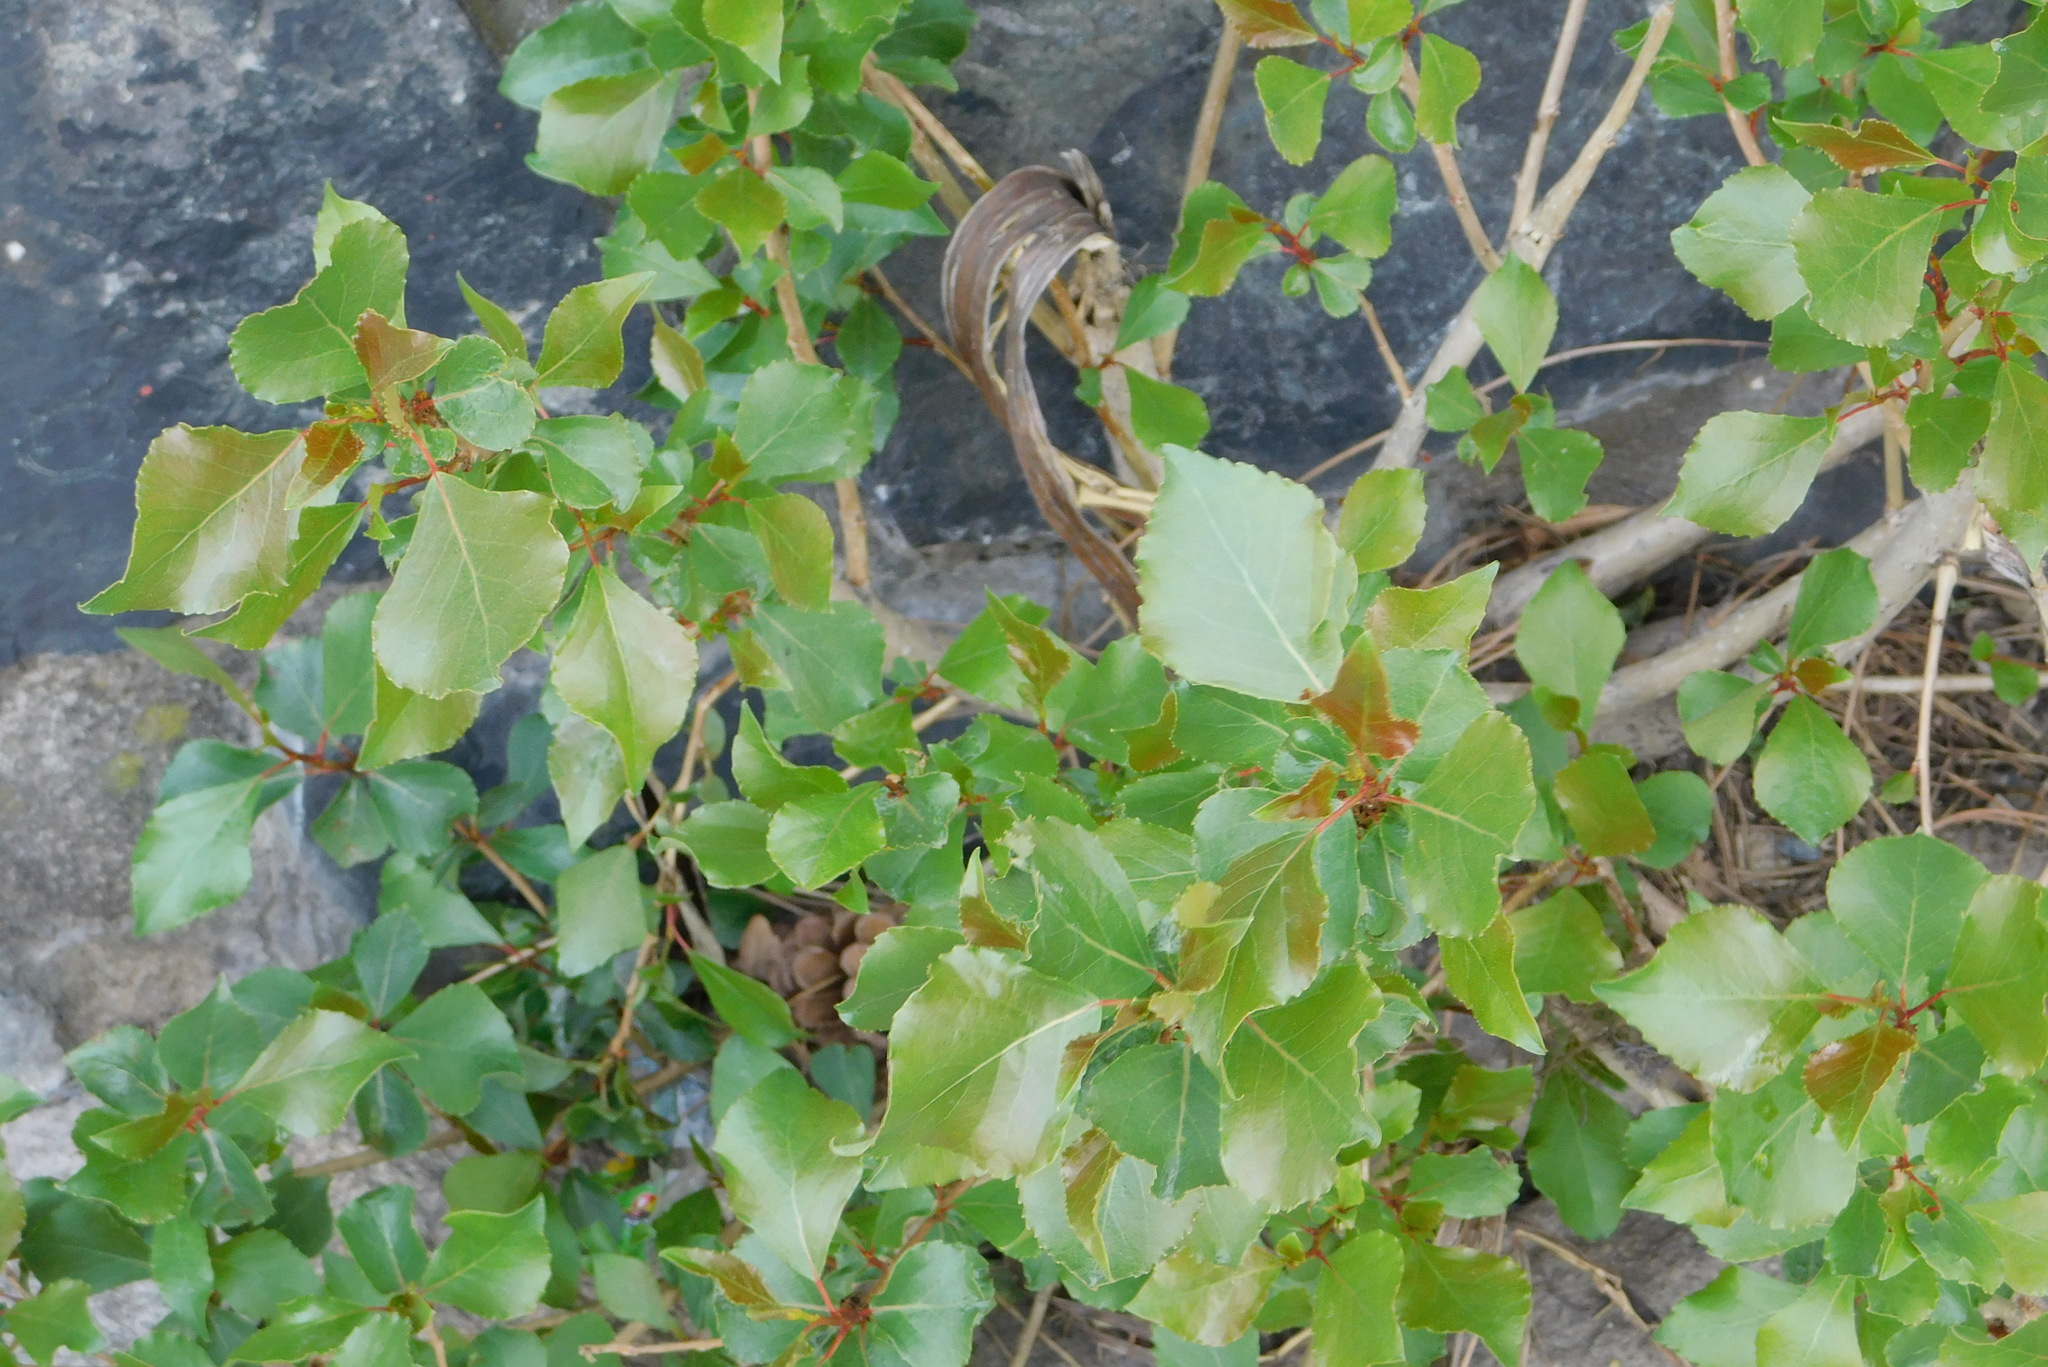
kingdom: Plantae
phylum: Tracheophyta
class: Magnoliopsida
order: Malpighiales
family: Salicaceae
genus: Populus
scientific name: Populus nigra
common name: Black poplar
